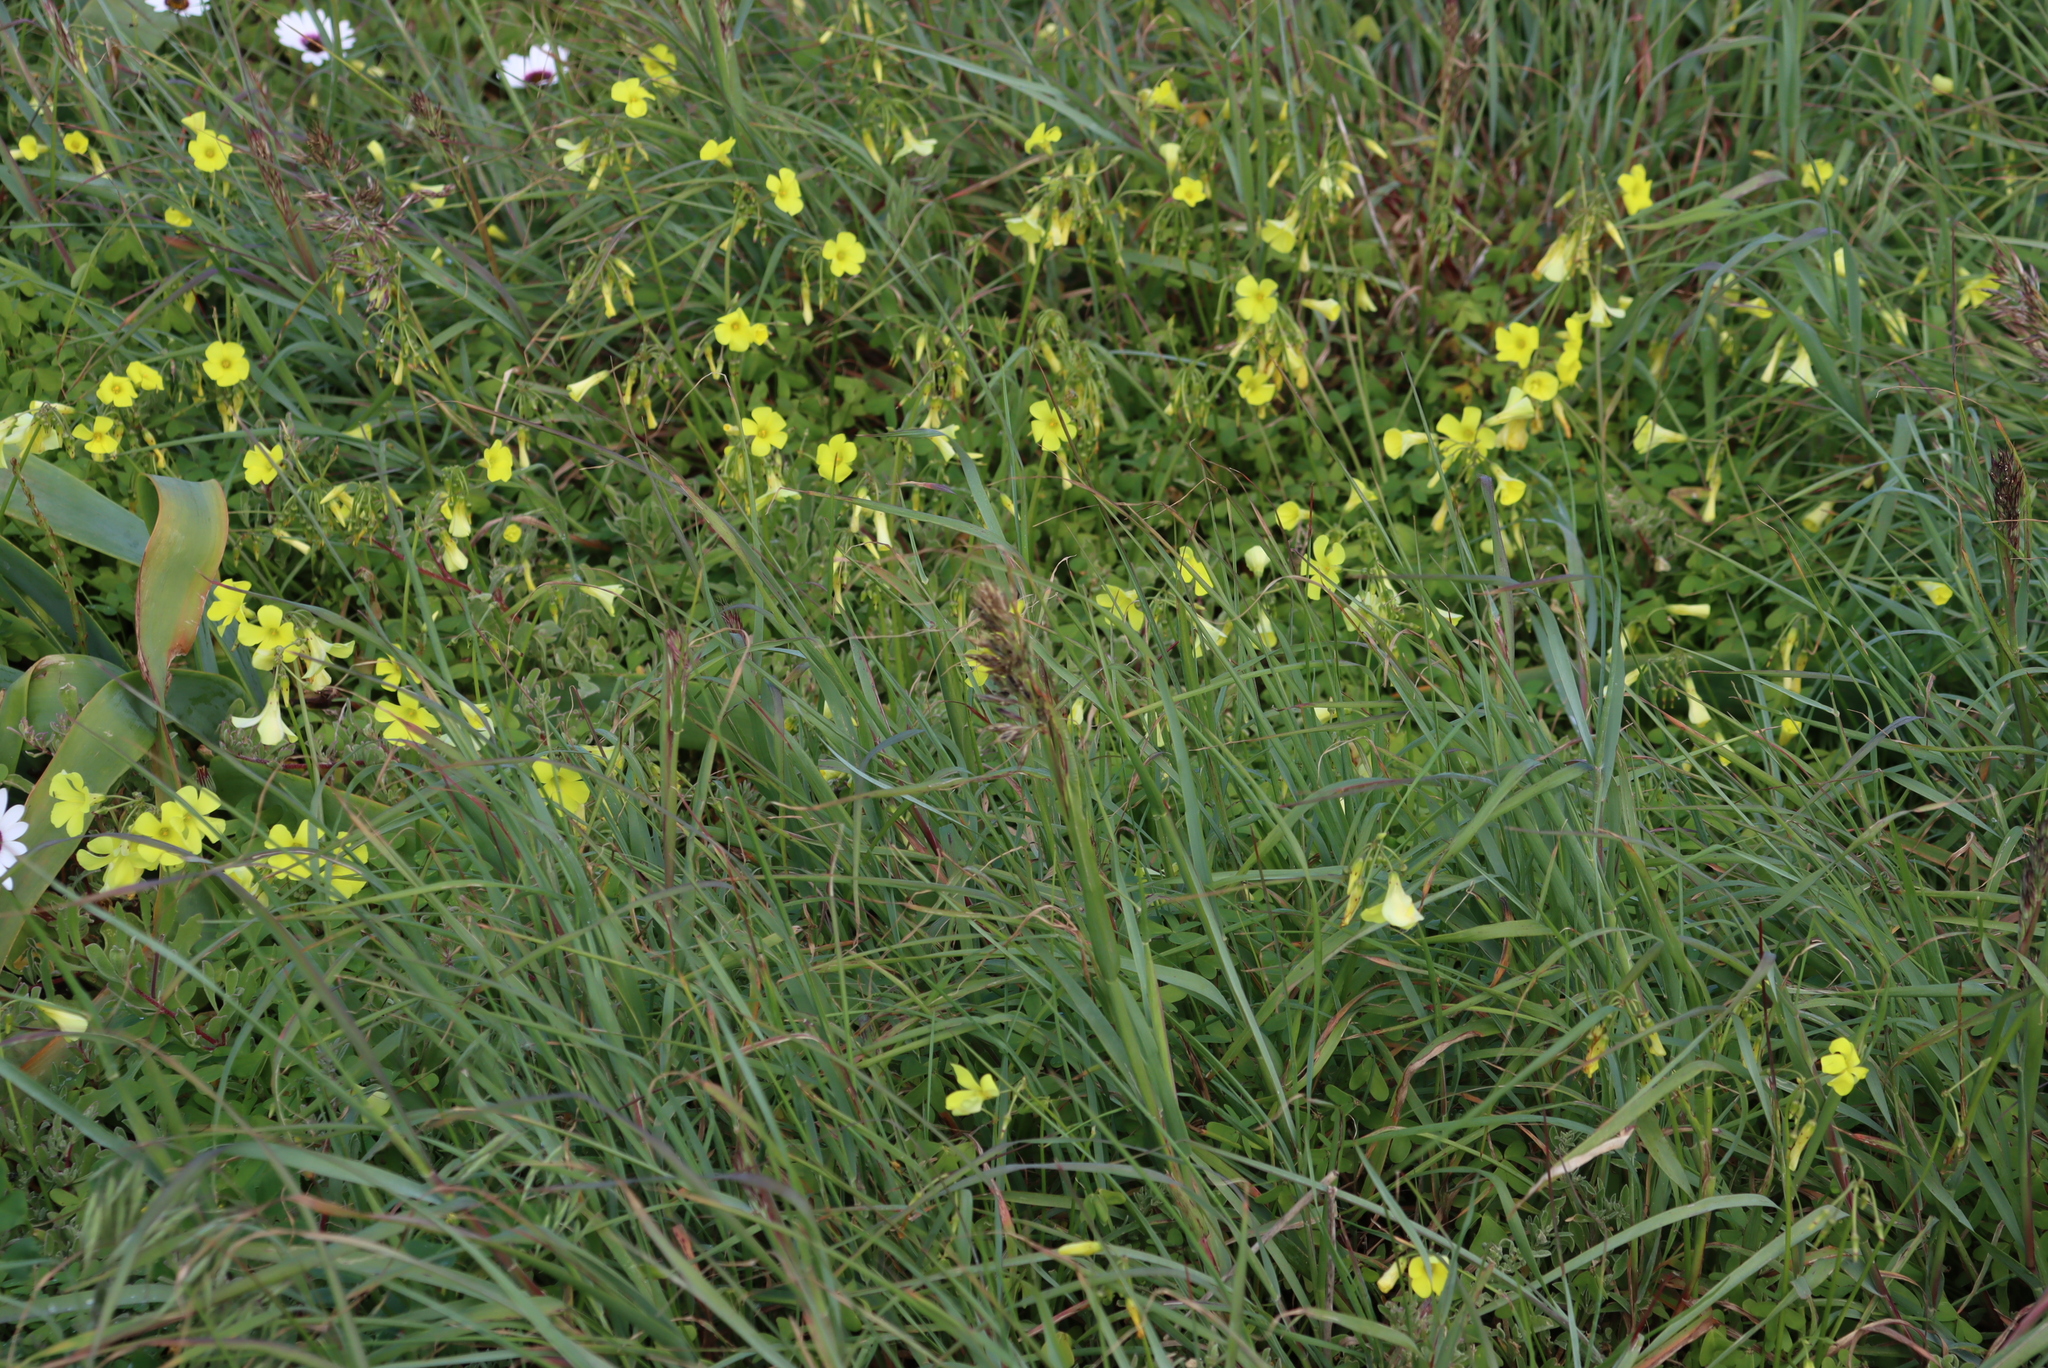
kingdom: Plantae
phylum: Tracheophyta
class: Magnoliopsida
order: Oxalidales
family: Oxalidaceae
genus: Oxalis
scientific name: Oxalis pes-caprae
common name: Bermuda-buttercup
